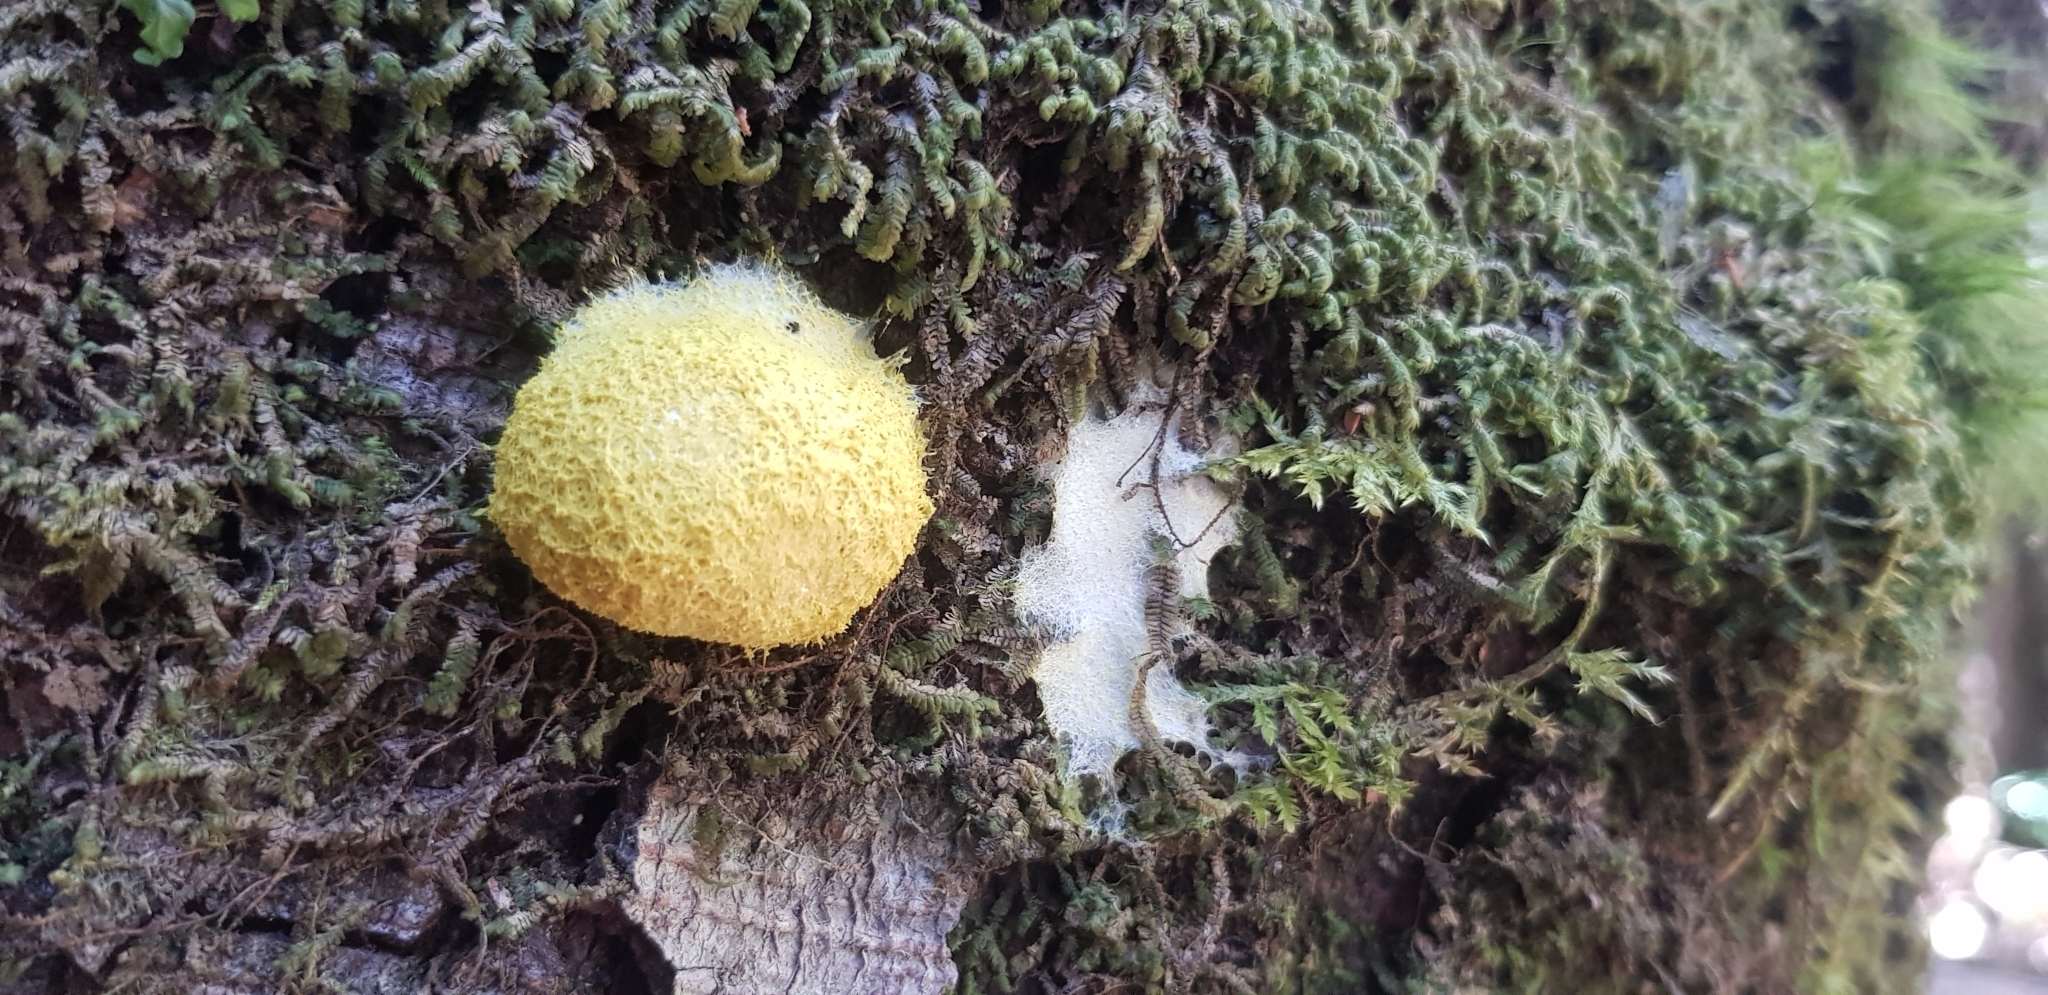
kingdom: Protozoa
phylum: Mycetozoa
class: Myxomycetes
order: Physarales
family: Physaraceae
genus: Fuligo
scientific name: Fuligo septica
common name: Dog vomit slime mold
